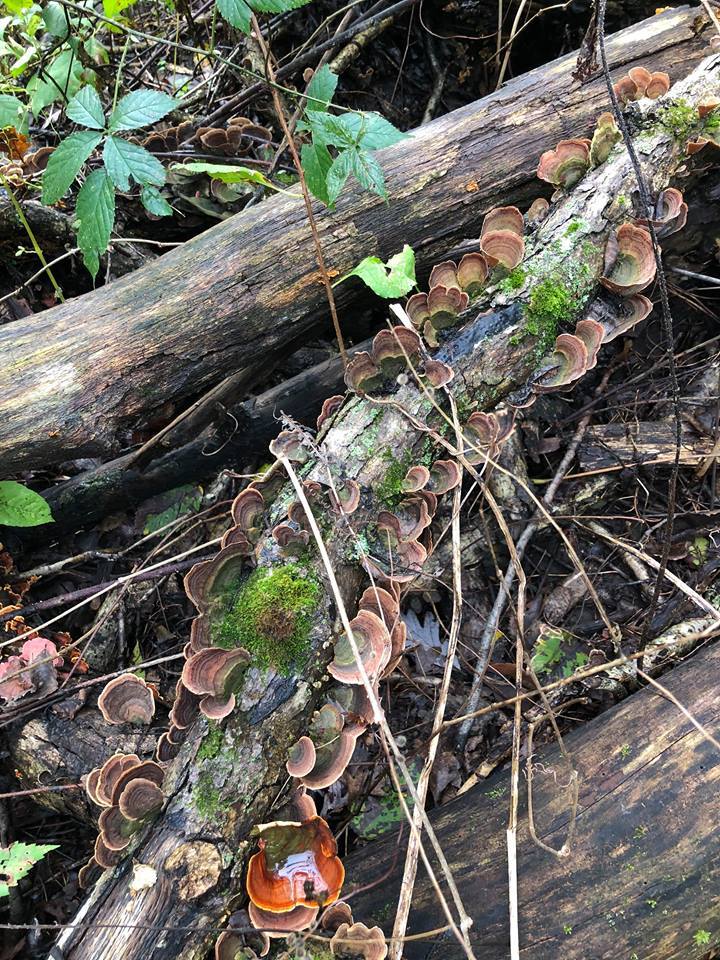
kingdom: Fungi
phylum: Basidiomycota
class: Agaricomycetes
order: Russulales
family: Stereaceae
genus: Stereum
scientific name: Stereum ostrea
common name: False turkeytail
